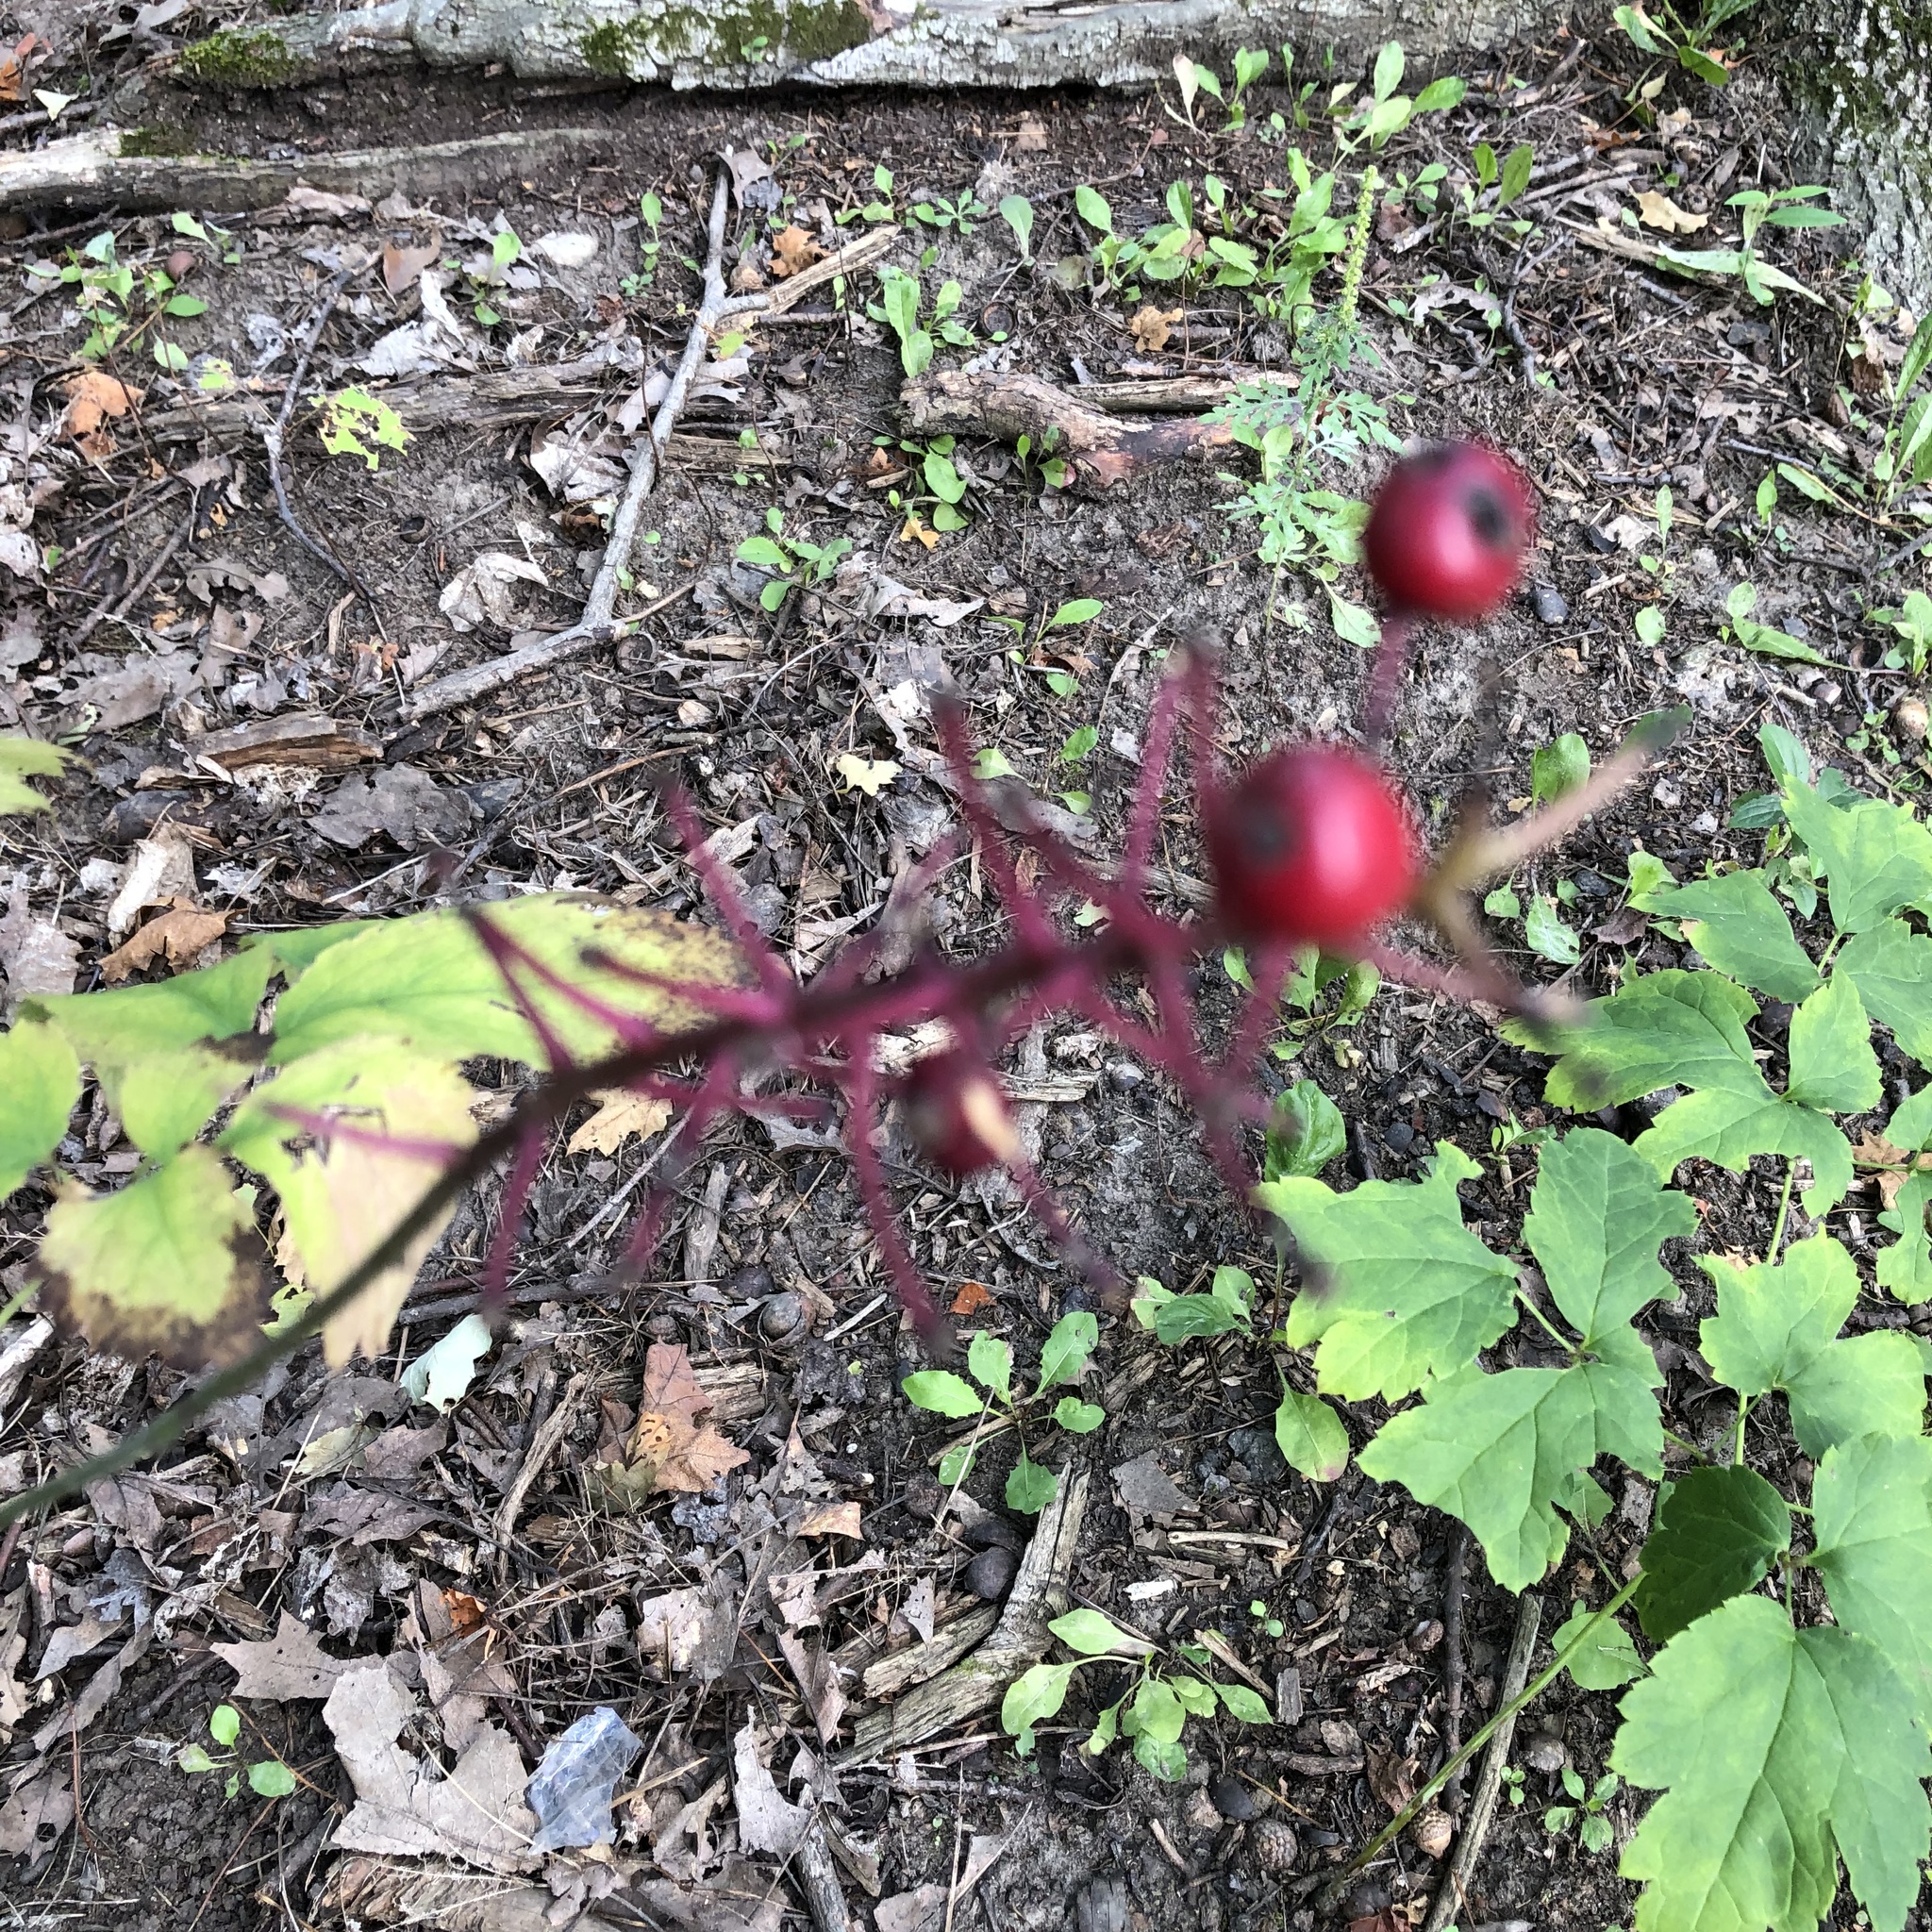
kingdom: Plantae
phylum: Tracheophyta
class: Magnoliopsida
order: Ranunculales
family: Ranunculaceae
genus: Actaea
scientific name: Actaea rubra
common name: Red baneberry
